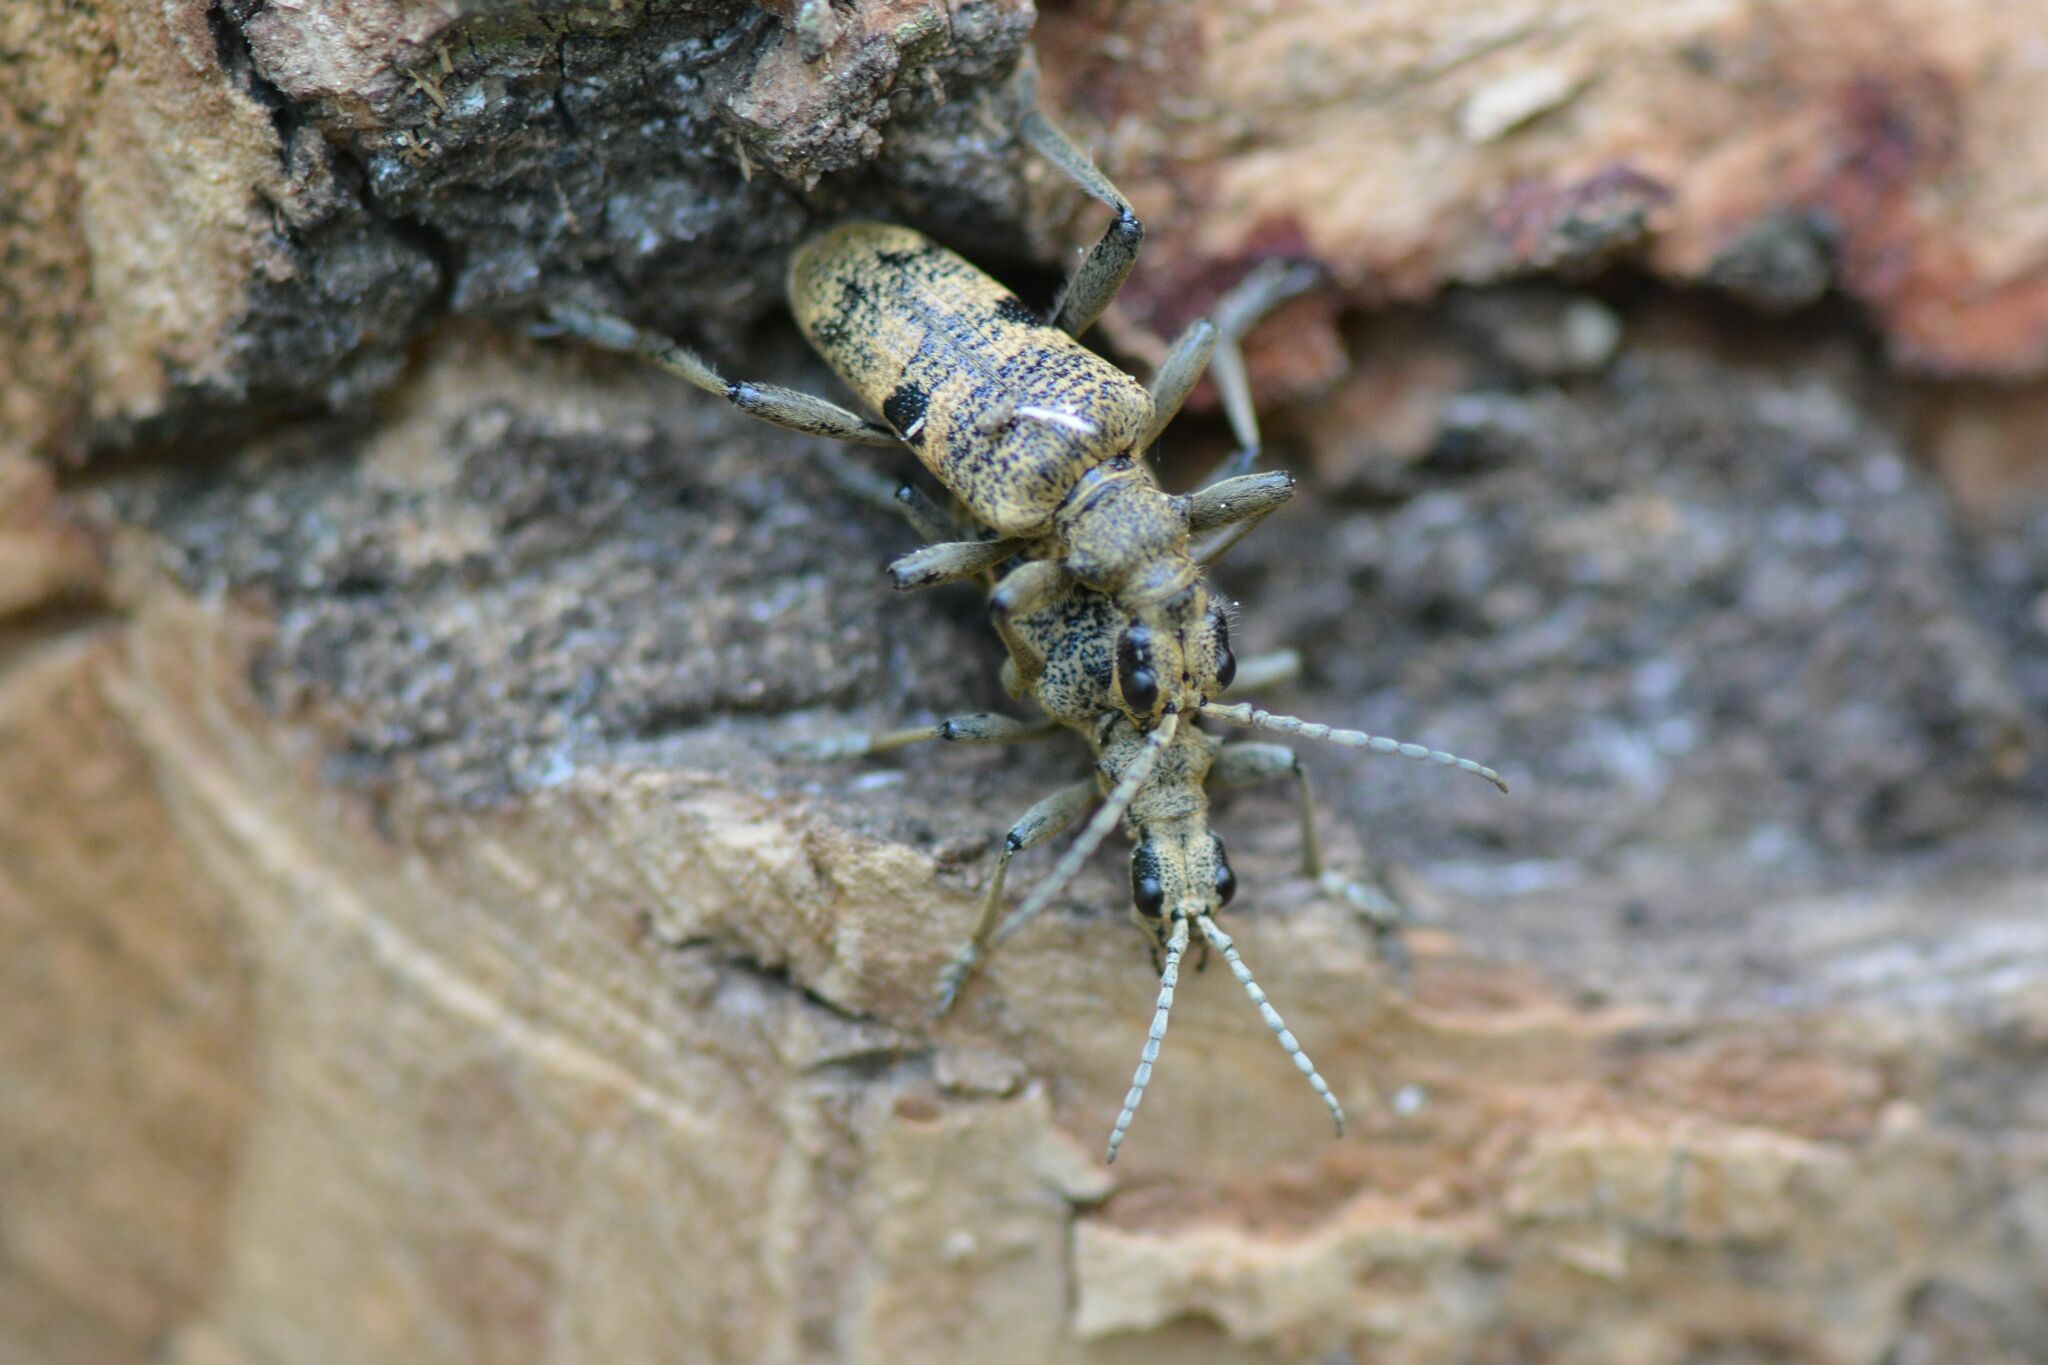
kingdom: Animalia
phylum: Arthropoda
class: Insecta
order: Coleoptera
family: Cerambycidae
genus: Rhagium
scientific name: Rhagium mordax
